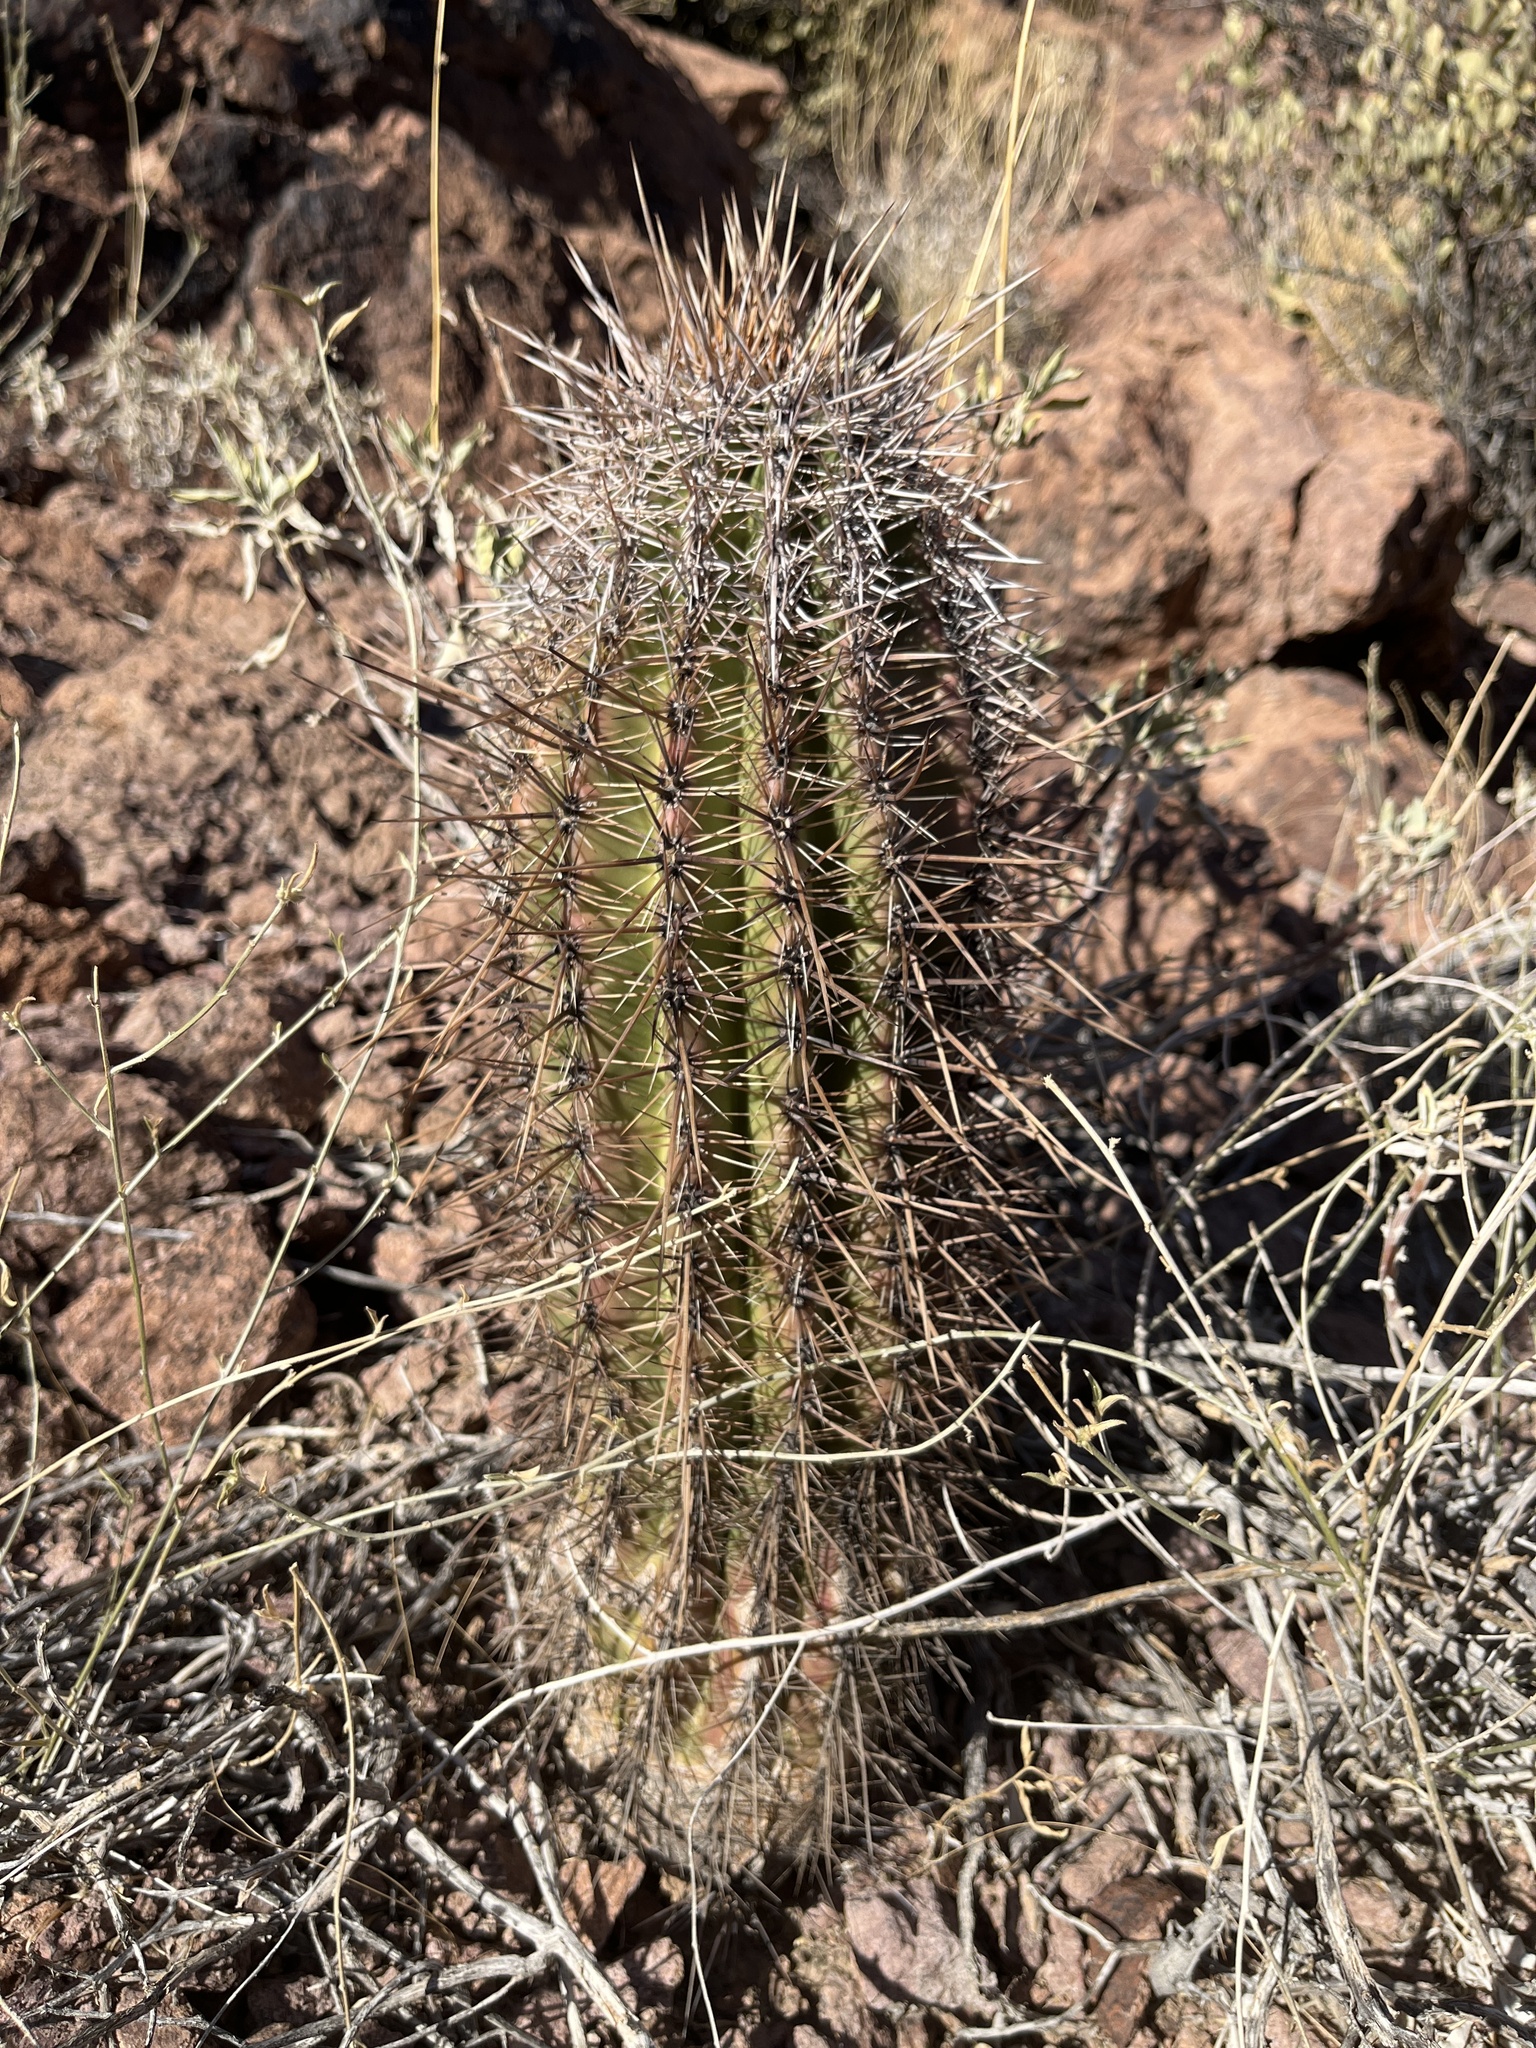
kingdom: Plantae
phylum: Tracheophyta
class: Magnoliopsida
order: Caryophyllales
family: Cactaceae
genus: Carnegiea
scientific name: Carnegiea gigantea
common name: Saguaro
